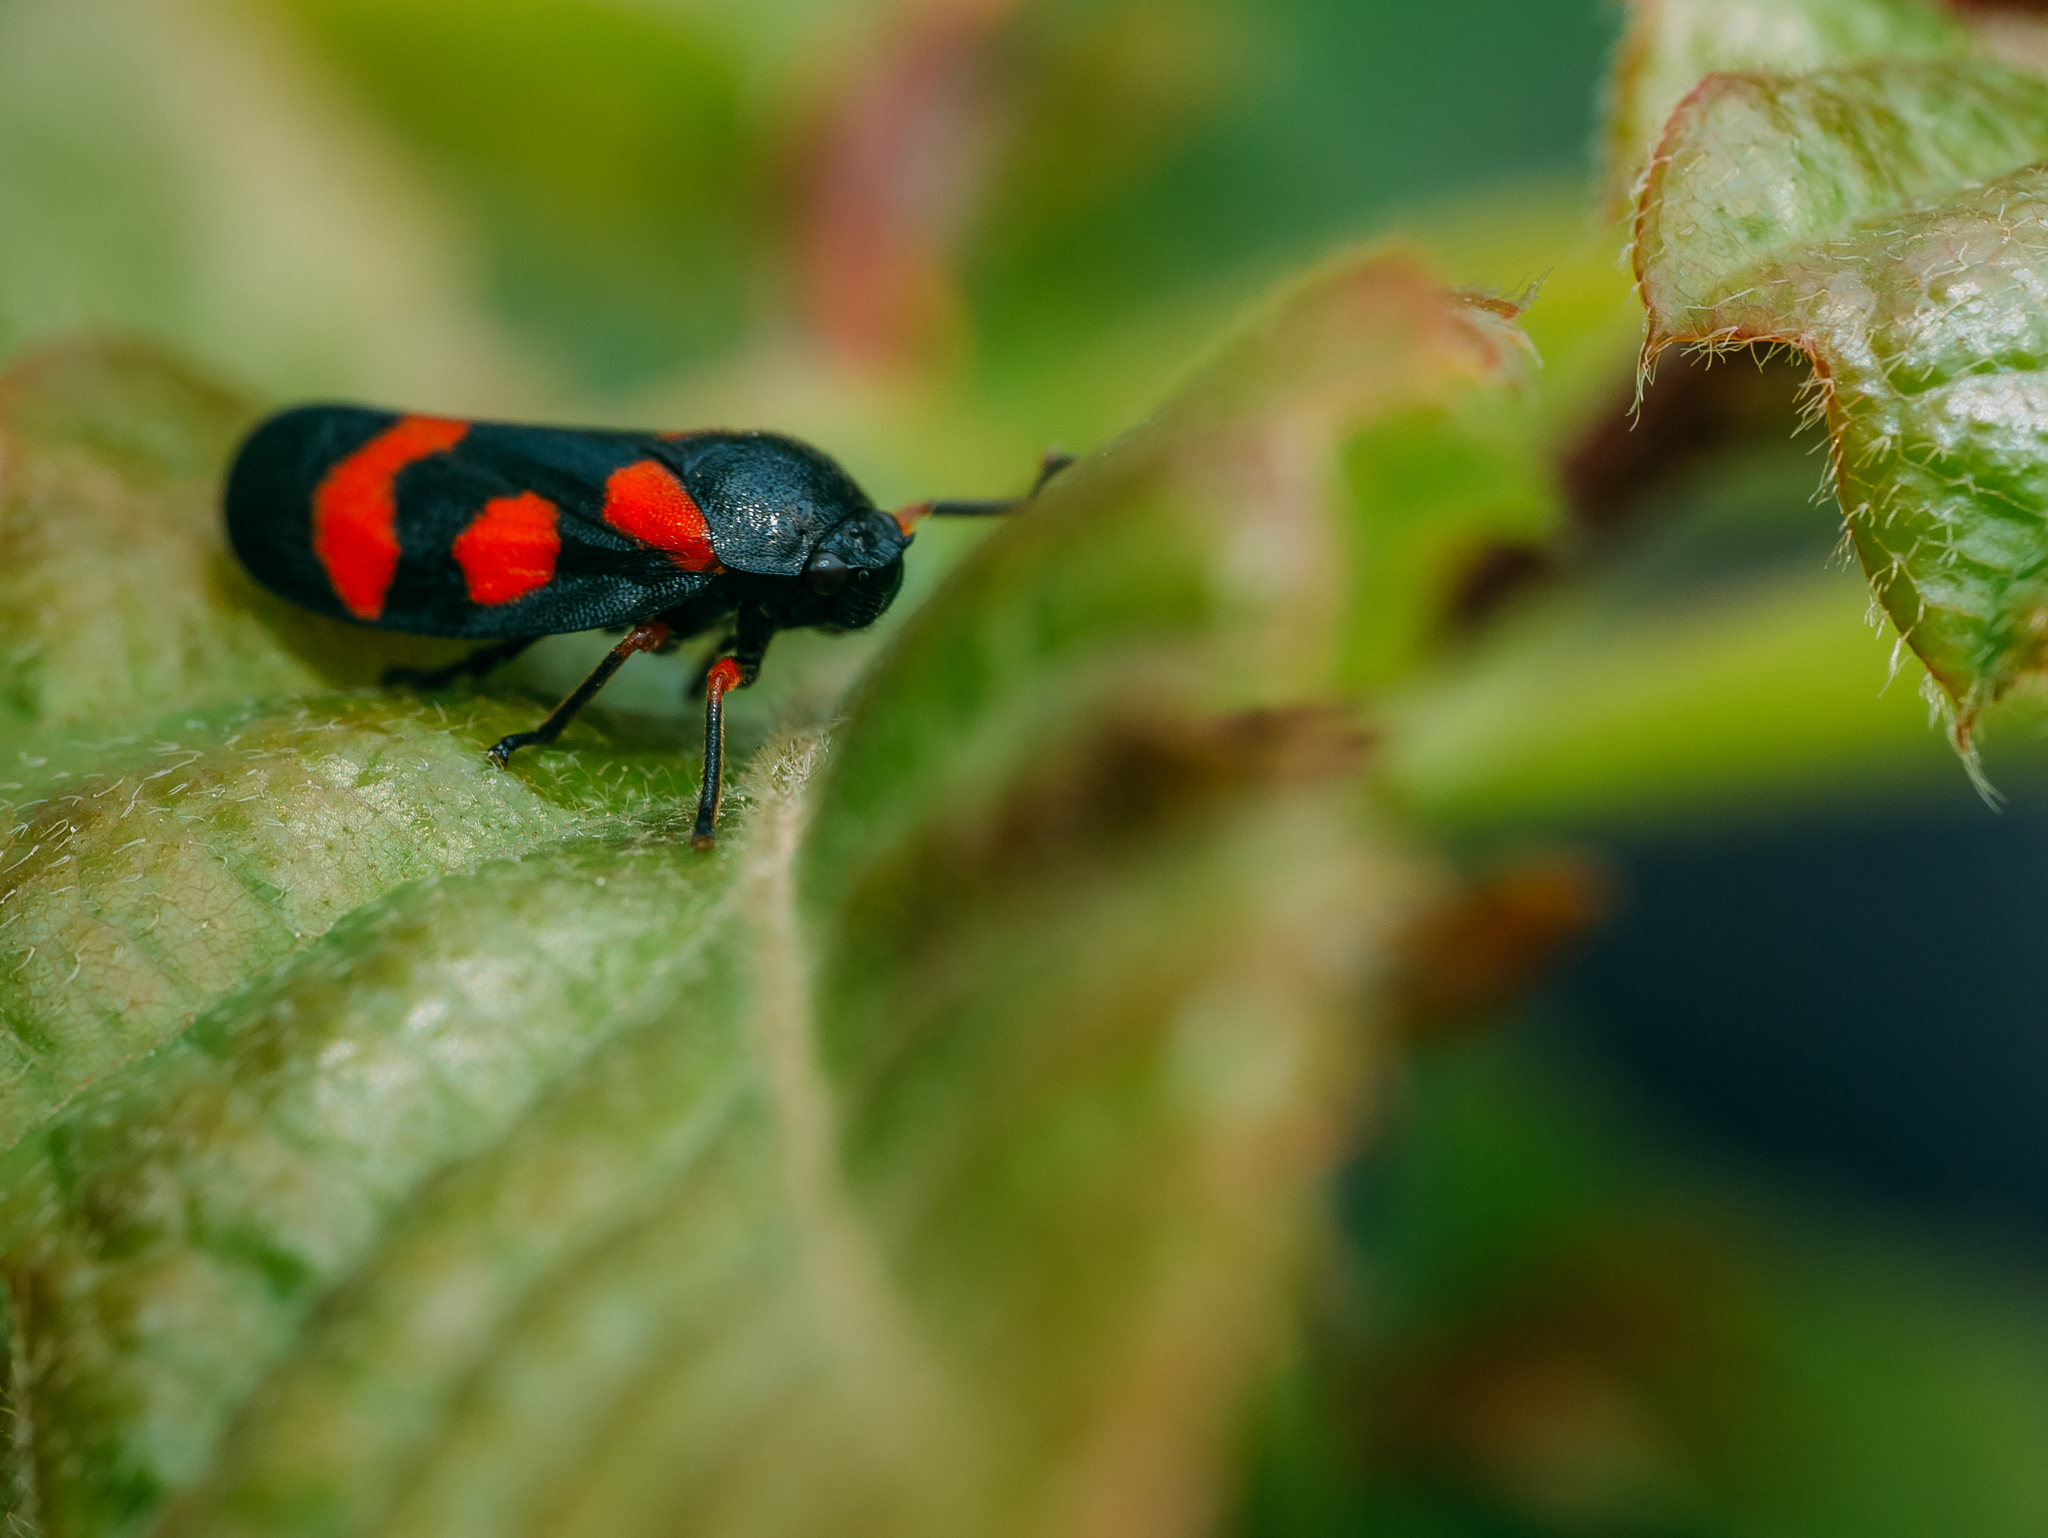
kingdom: Animalia
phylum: Arthropoda
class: Insecta
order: Hemiptera
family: Cercopidae
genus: Cercopis
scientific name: Cercopis intermedia
